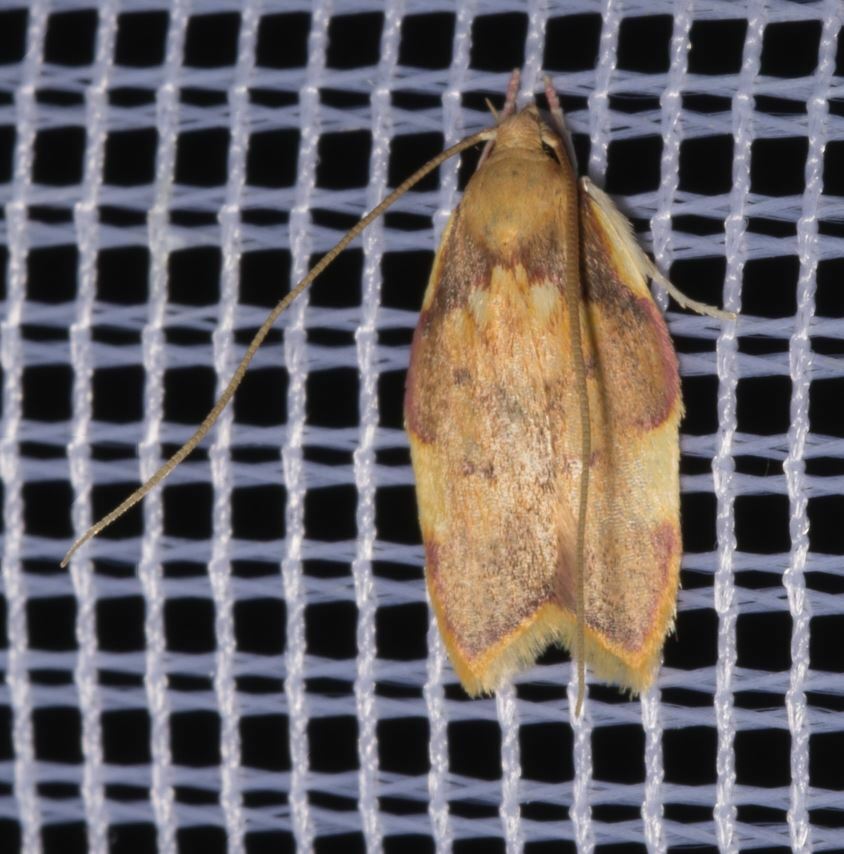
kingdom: Animalia
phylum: Arthropoda
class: Insecta
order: Lepidoptera
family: Peleopodidae
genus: Carcina
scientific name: Carcina quercana
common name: Moth
